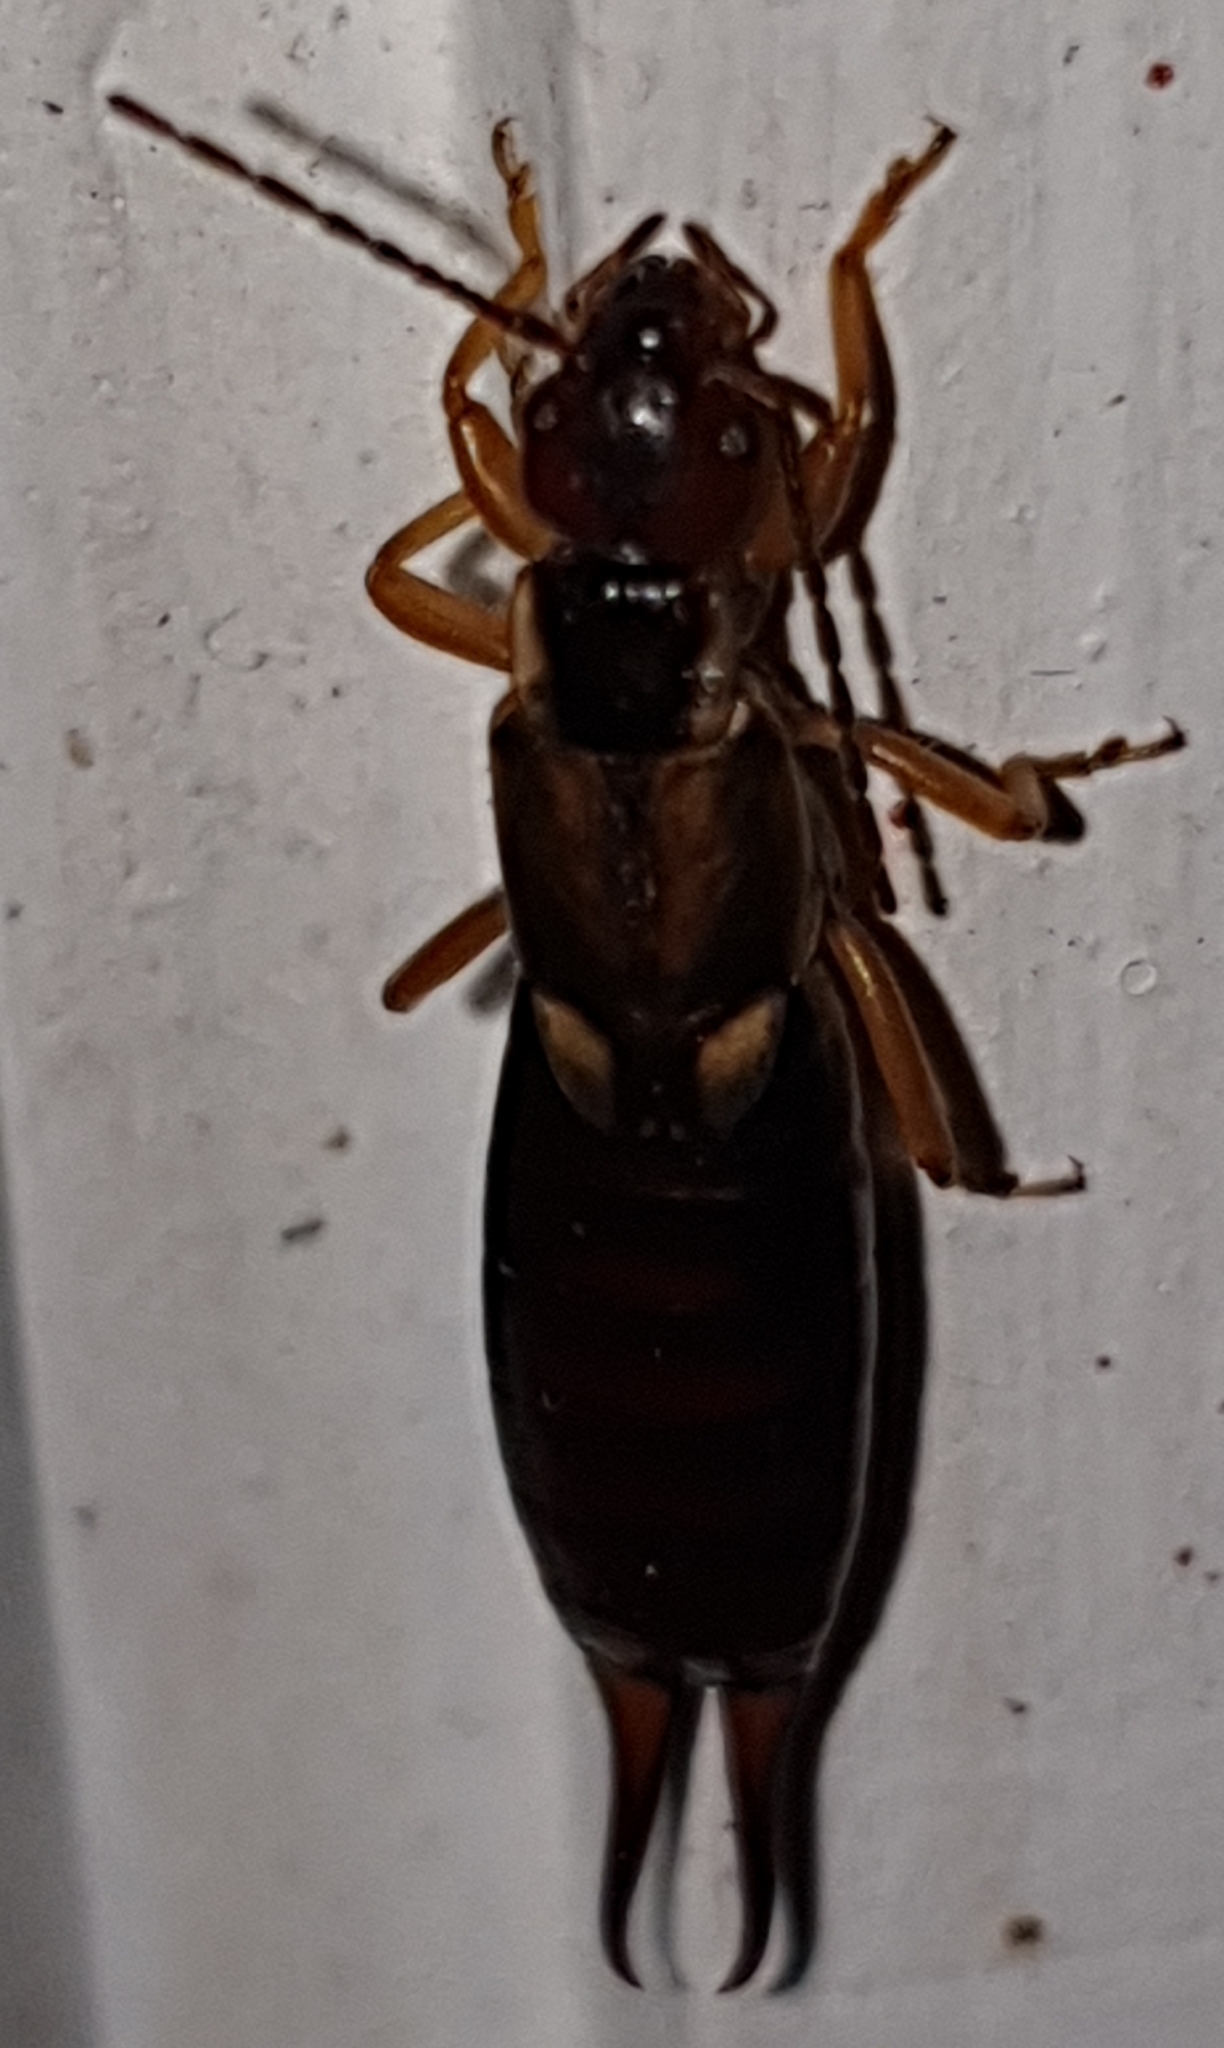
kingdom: Animalia
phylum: Arthropoda
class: Insecta
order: Dermaptera
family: Forficulidae
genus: Forficula
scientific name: Forficula
